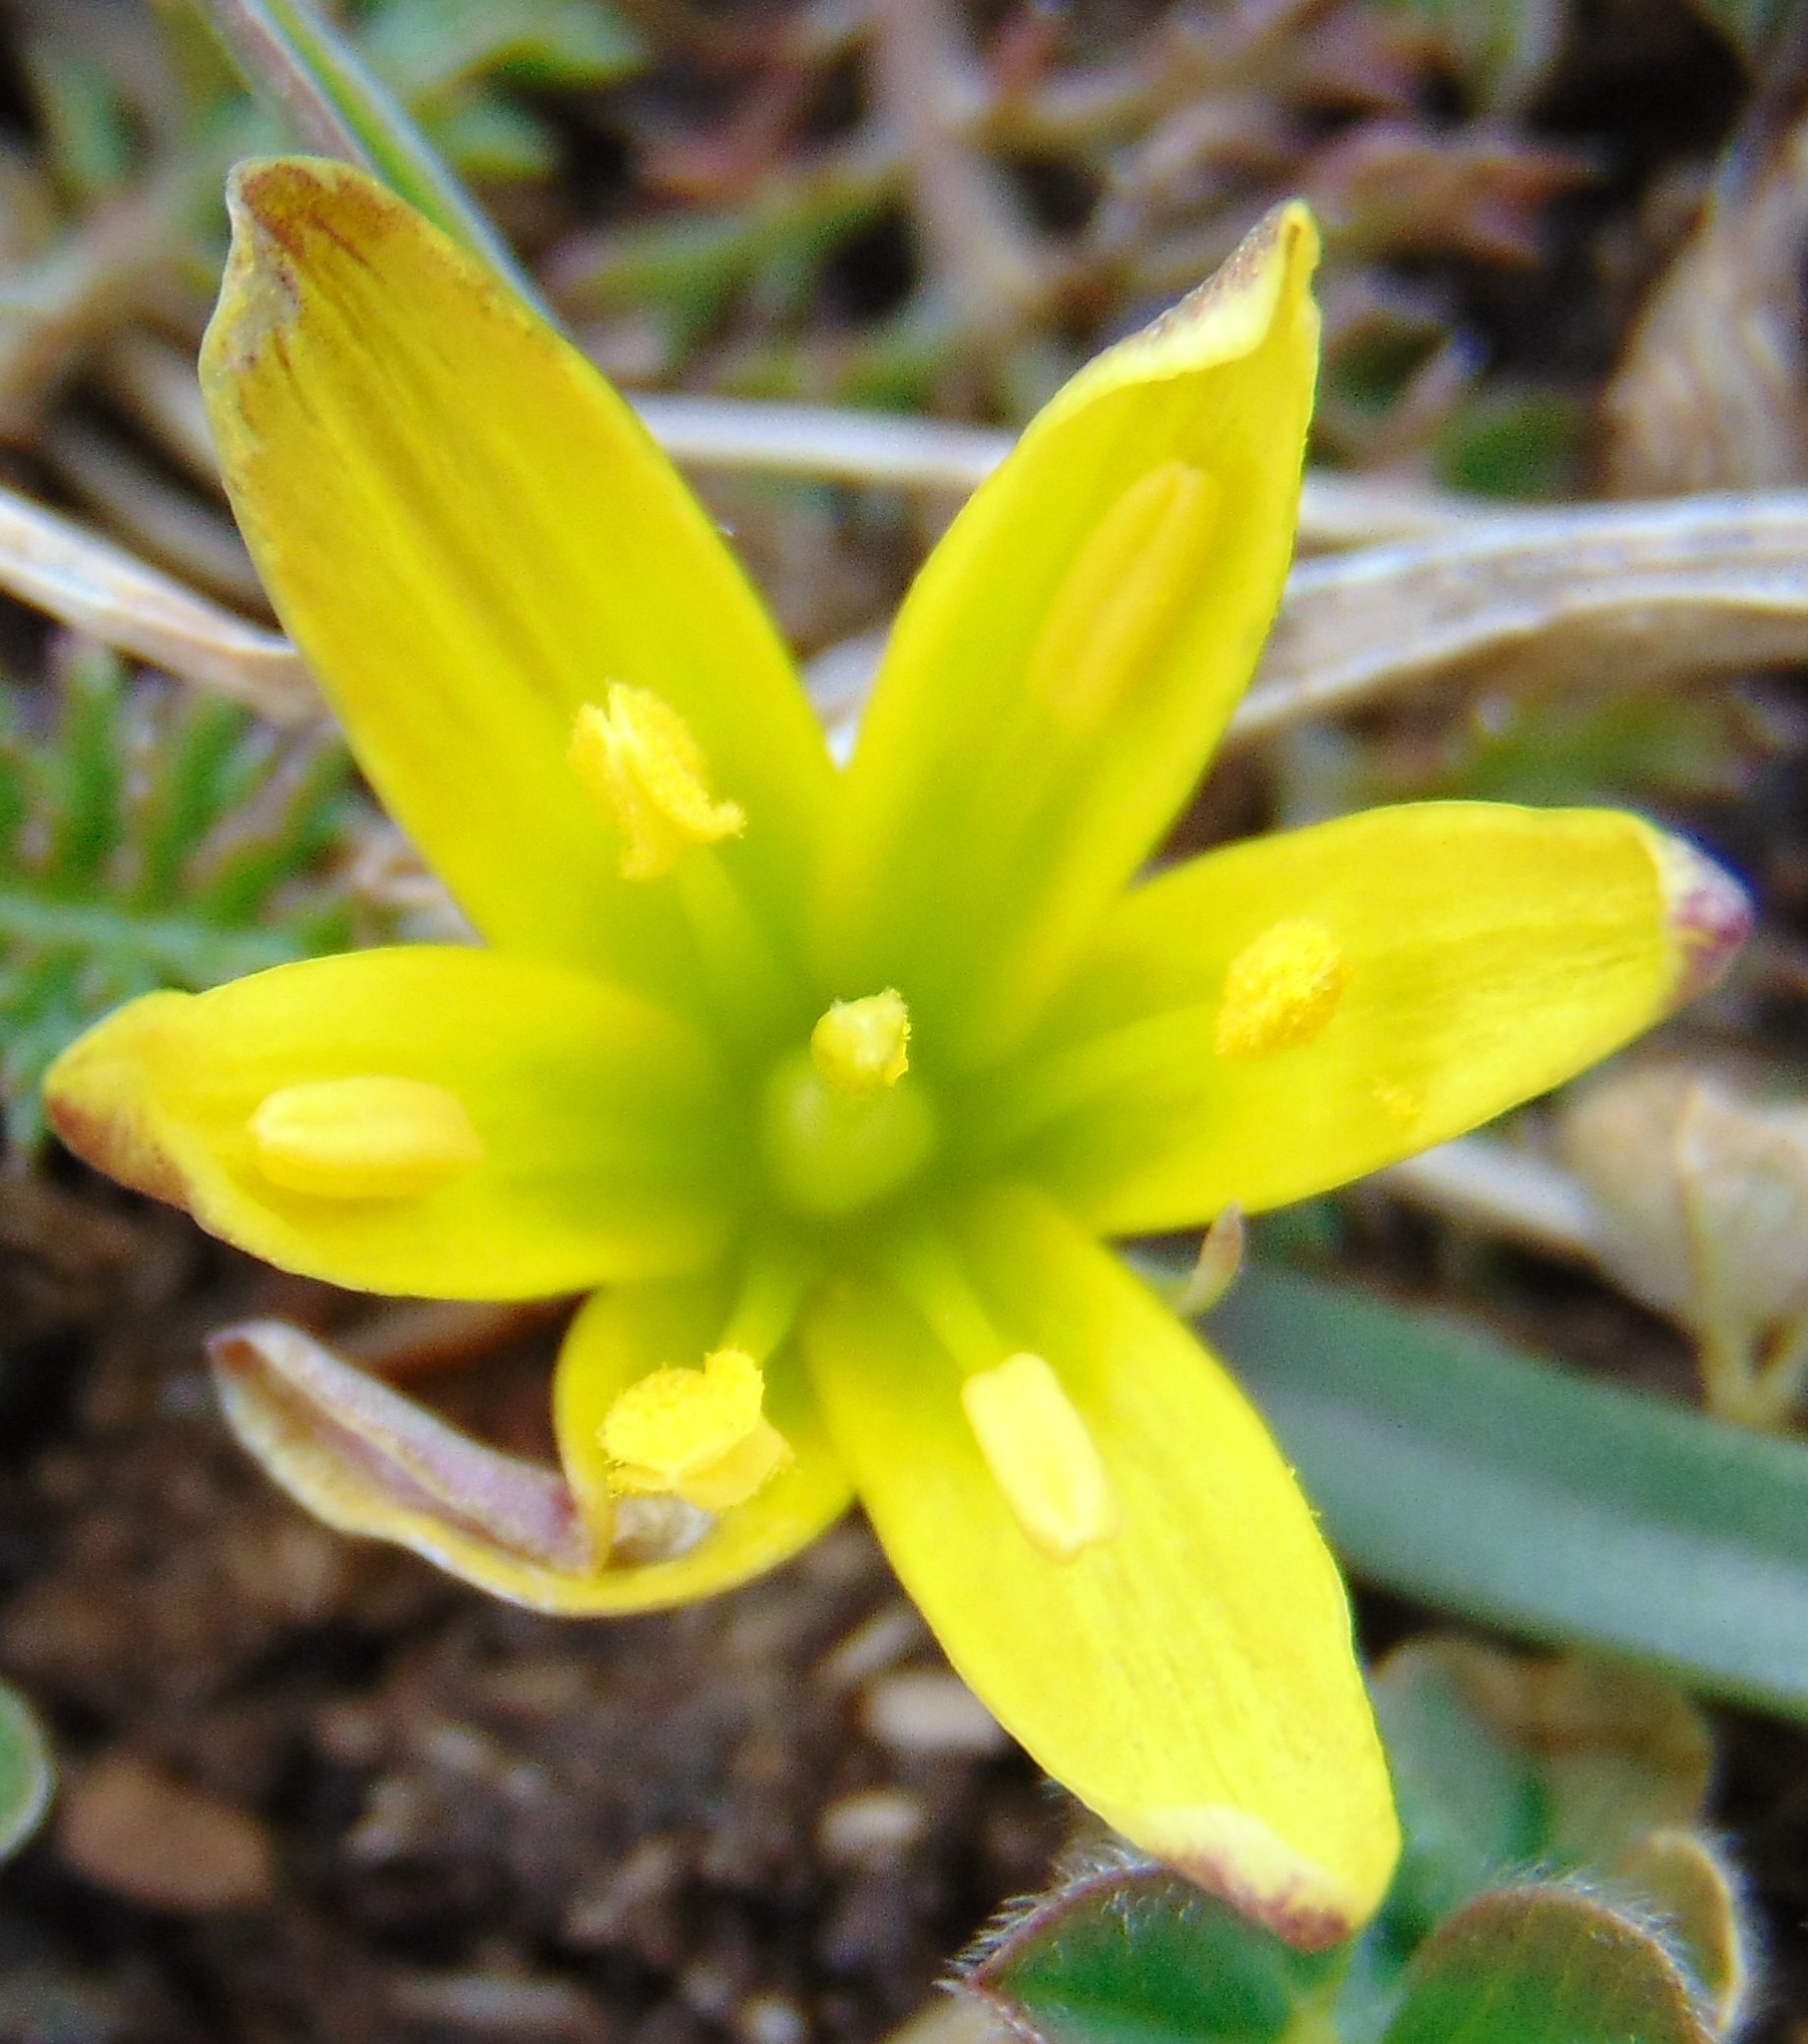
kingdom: Plantae
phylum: Tracheophyta
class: Liliopsida
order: Liliales
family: Liliaceae
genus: Gagea
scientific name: Gagea pusilla
